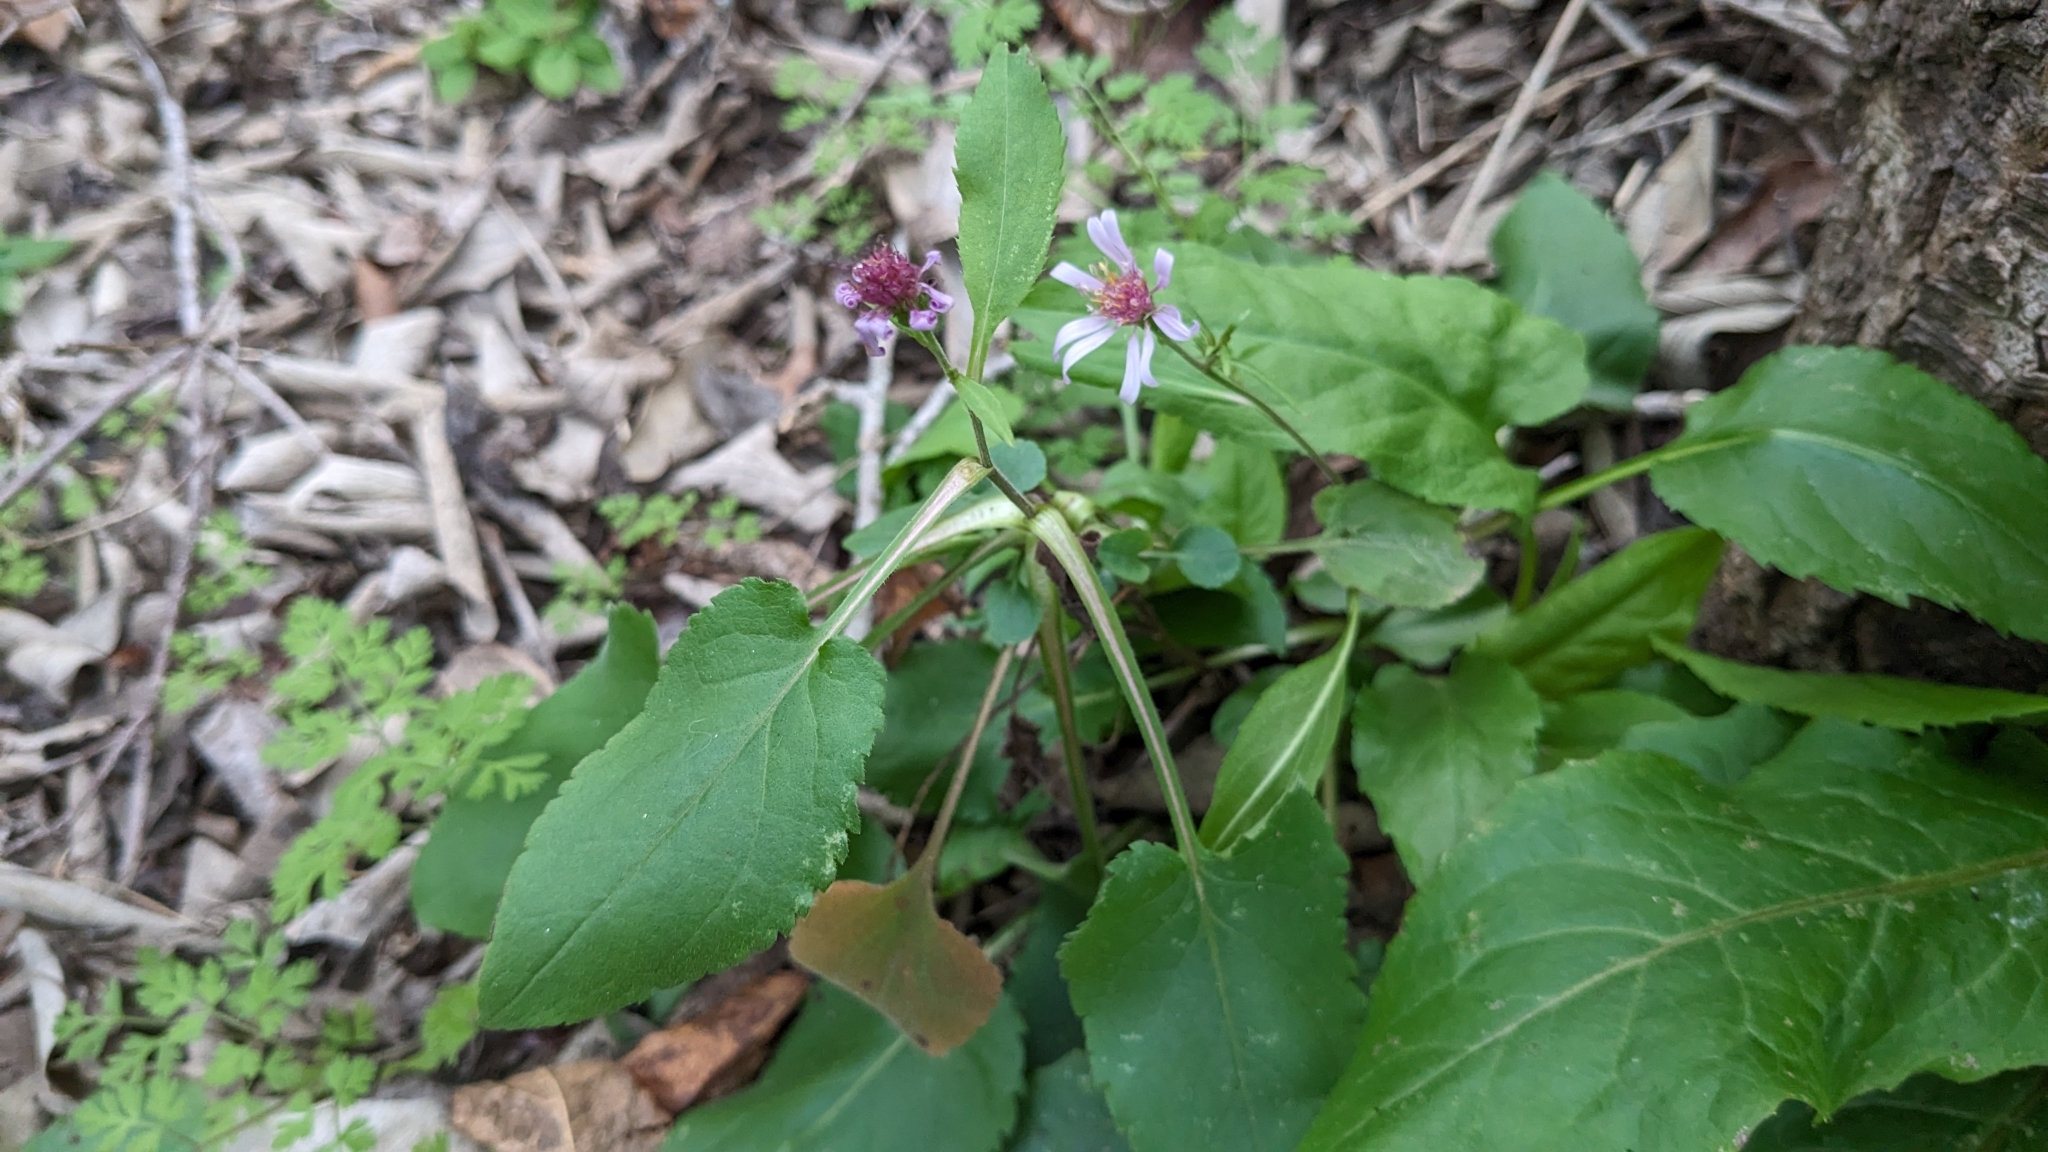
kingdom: Plantae
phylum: Tracheophyta
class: Magnoliopsida
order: Asterales
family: Asteraceae
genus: Symphyotrichum
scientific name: Symphyotrichum drummondii
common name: Drummond's aster
